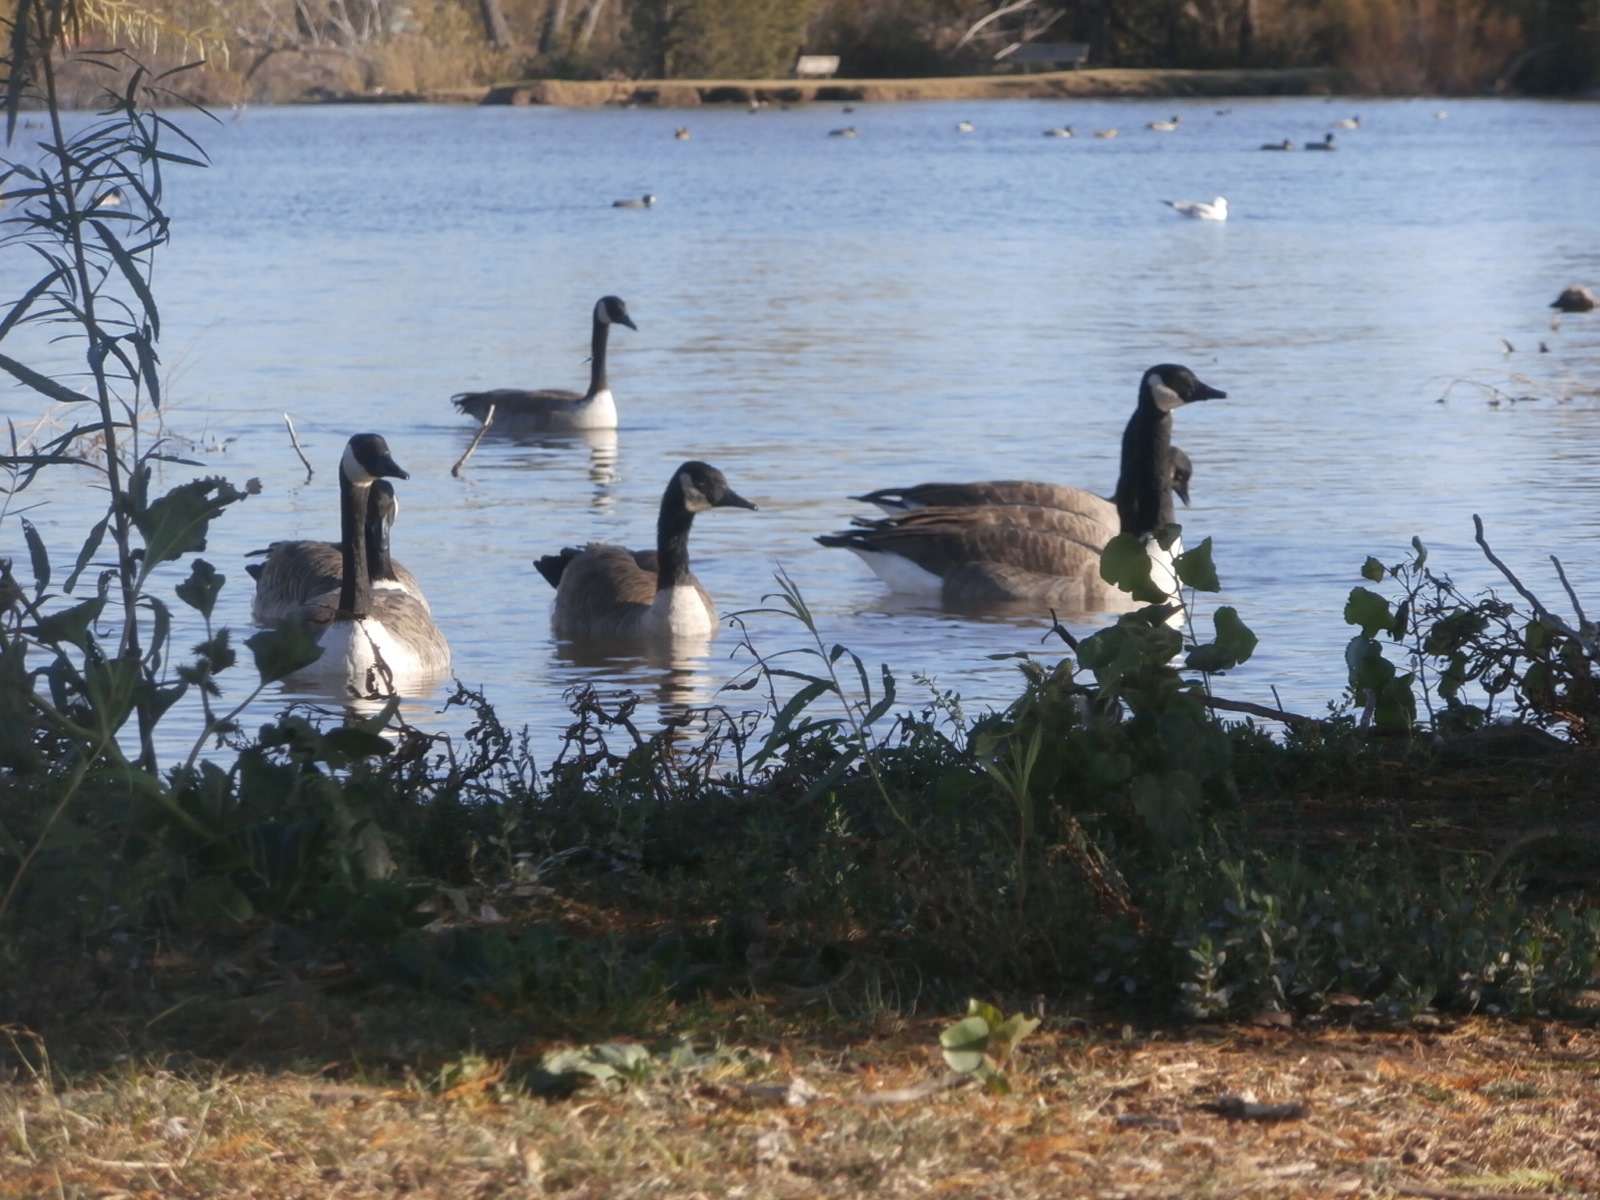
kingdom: Animalia
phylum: Chordata
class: Aves
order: Anseriformes
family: Anatidae
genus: Branta
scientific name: Branta canadensis
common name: Canada goose
